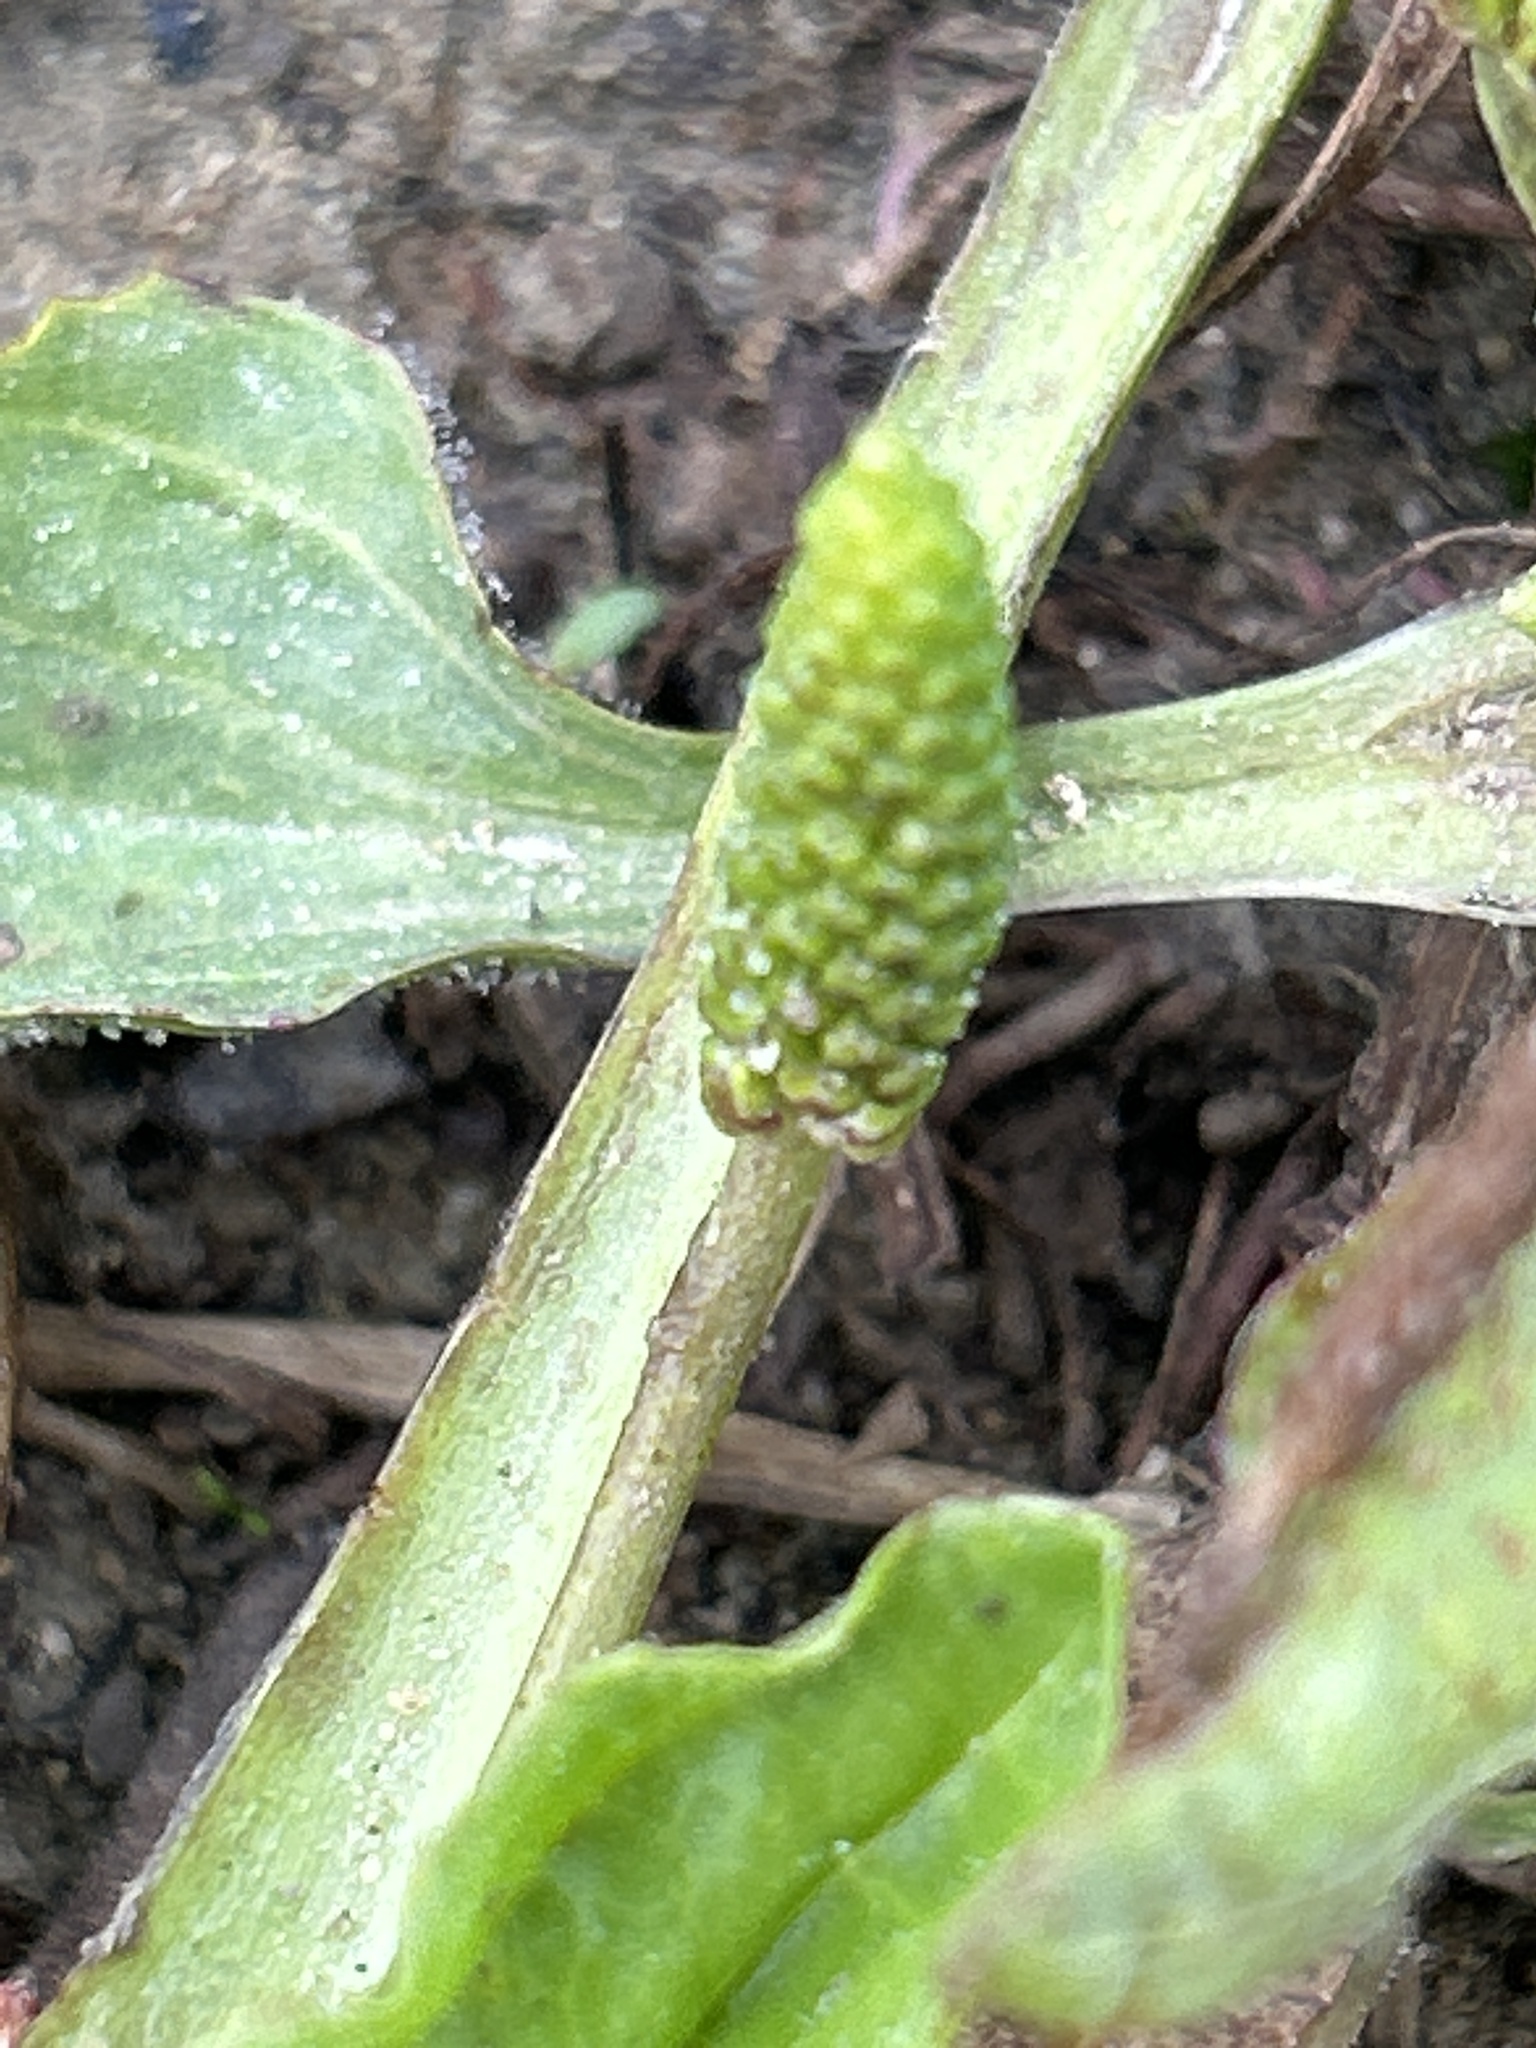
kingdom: Plantae
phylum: Tracheophyta
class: Magnoliopsida
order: Lamiales
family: Plantaginaceae
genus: Plantago
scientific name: Plantago major
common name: Common plantain
